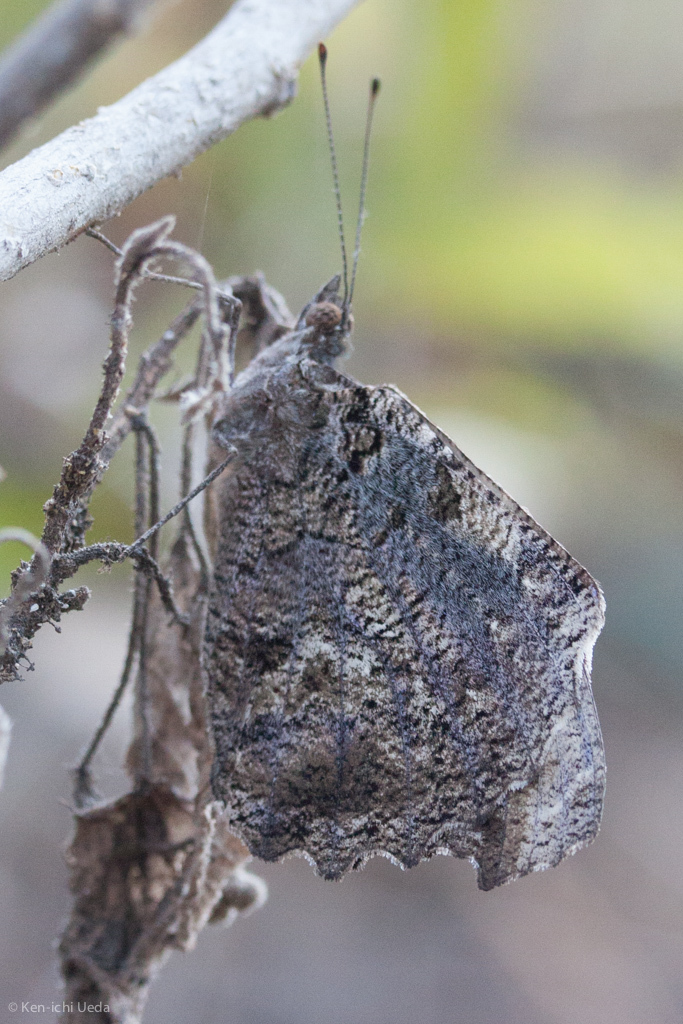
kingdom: Animalia
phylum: Arthropoda
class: Insecta
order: Lepidoptera
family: Nymphalidae
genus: Myscelia
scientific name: Myscelia cyaniris
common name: Whitened bluewing
